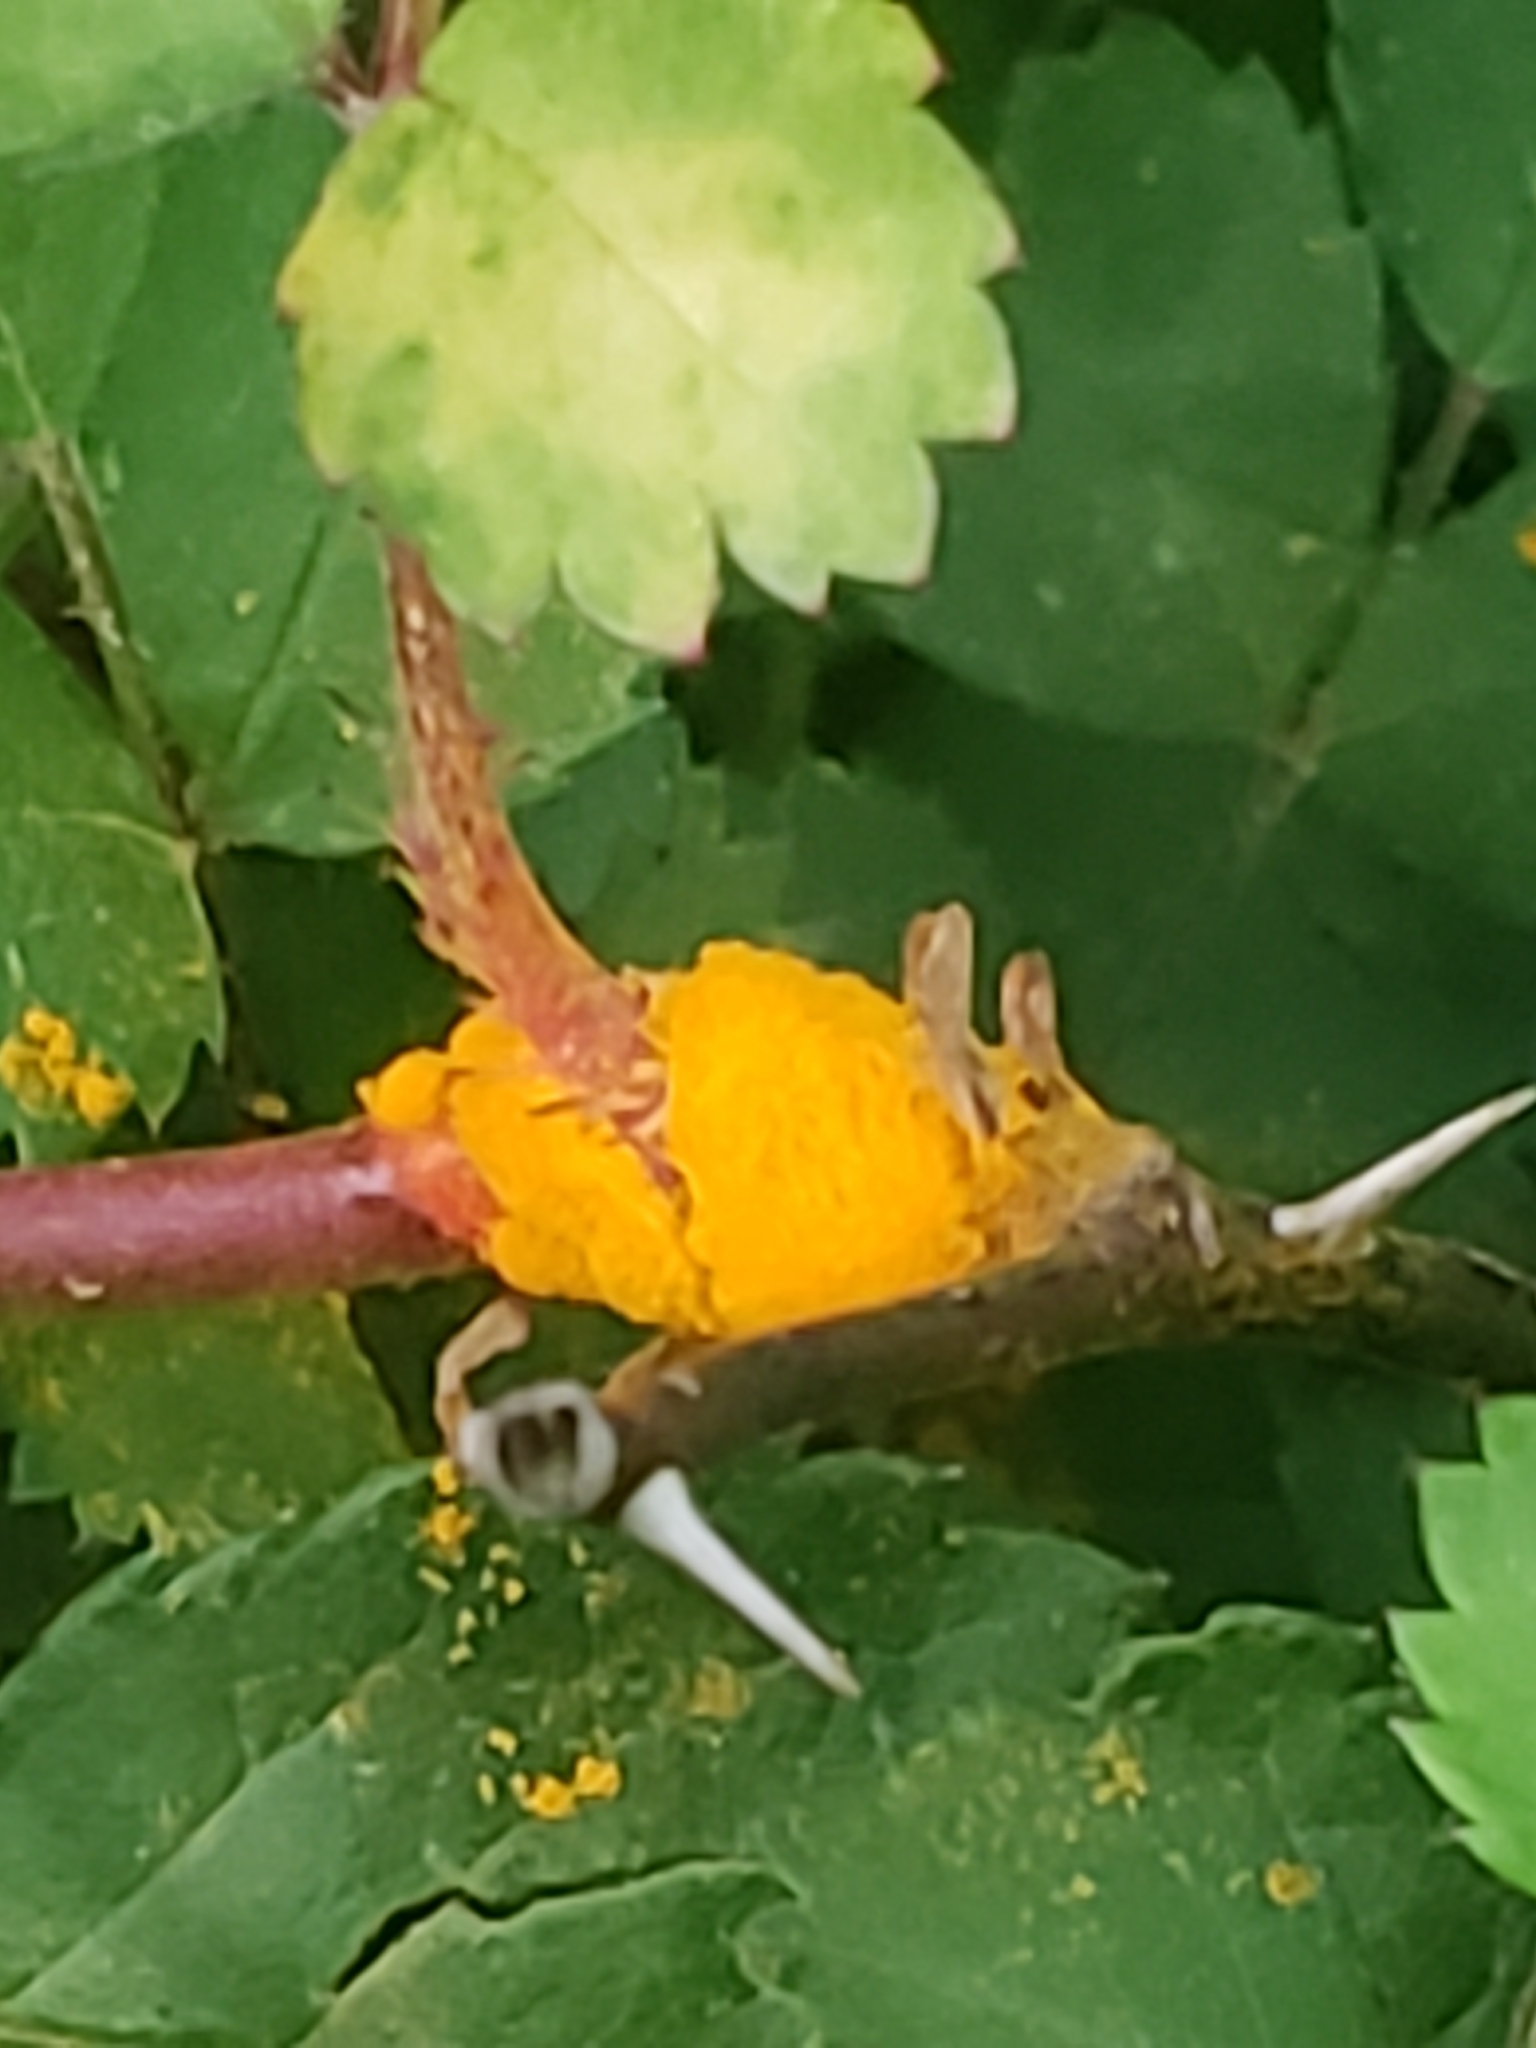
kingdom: Fungi
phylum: Basidiomycota
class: Pucciniomycetes
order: Pucciniales
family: Phragmidiaceae
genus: Phragmidium
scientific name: Phragmidium rosae-multiflorae
